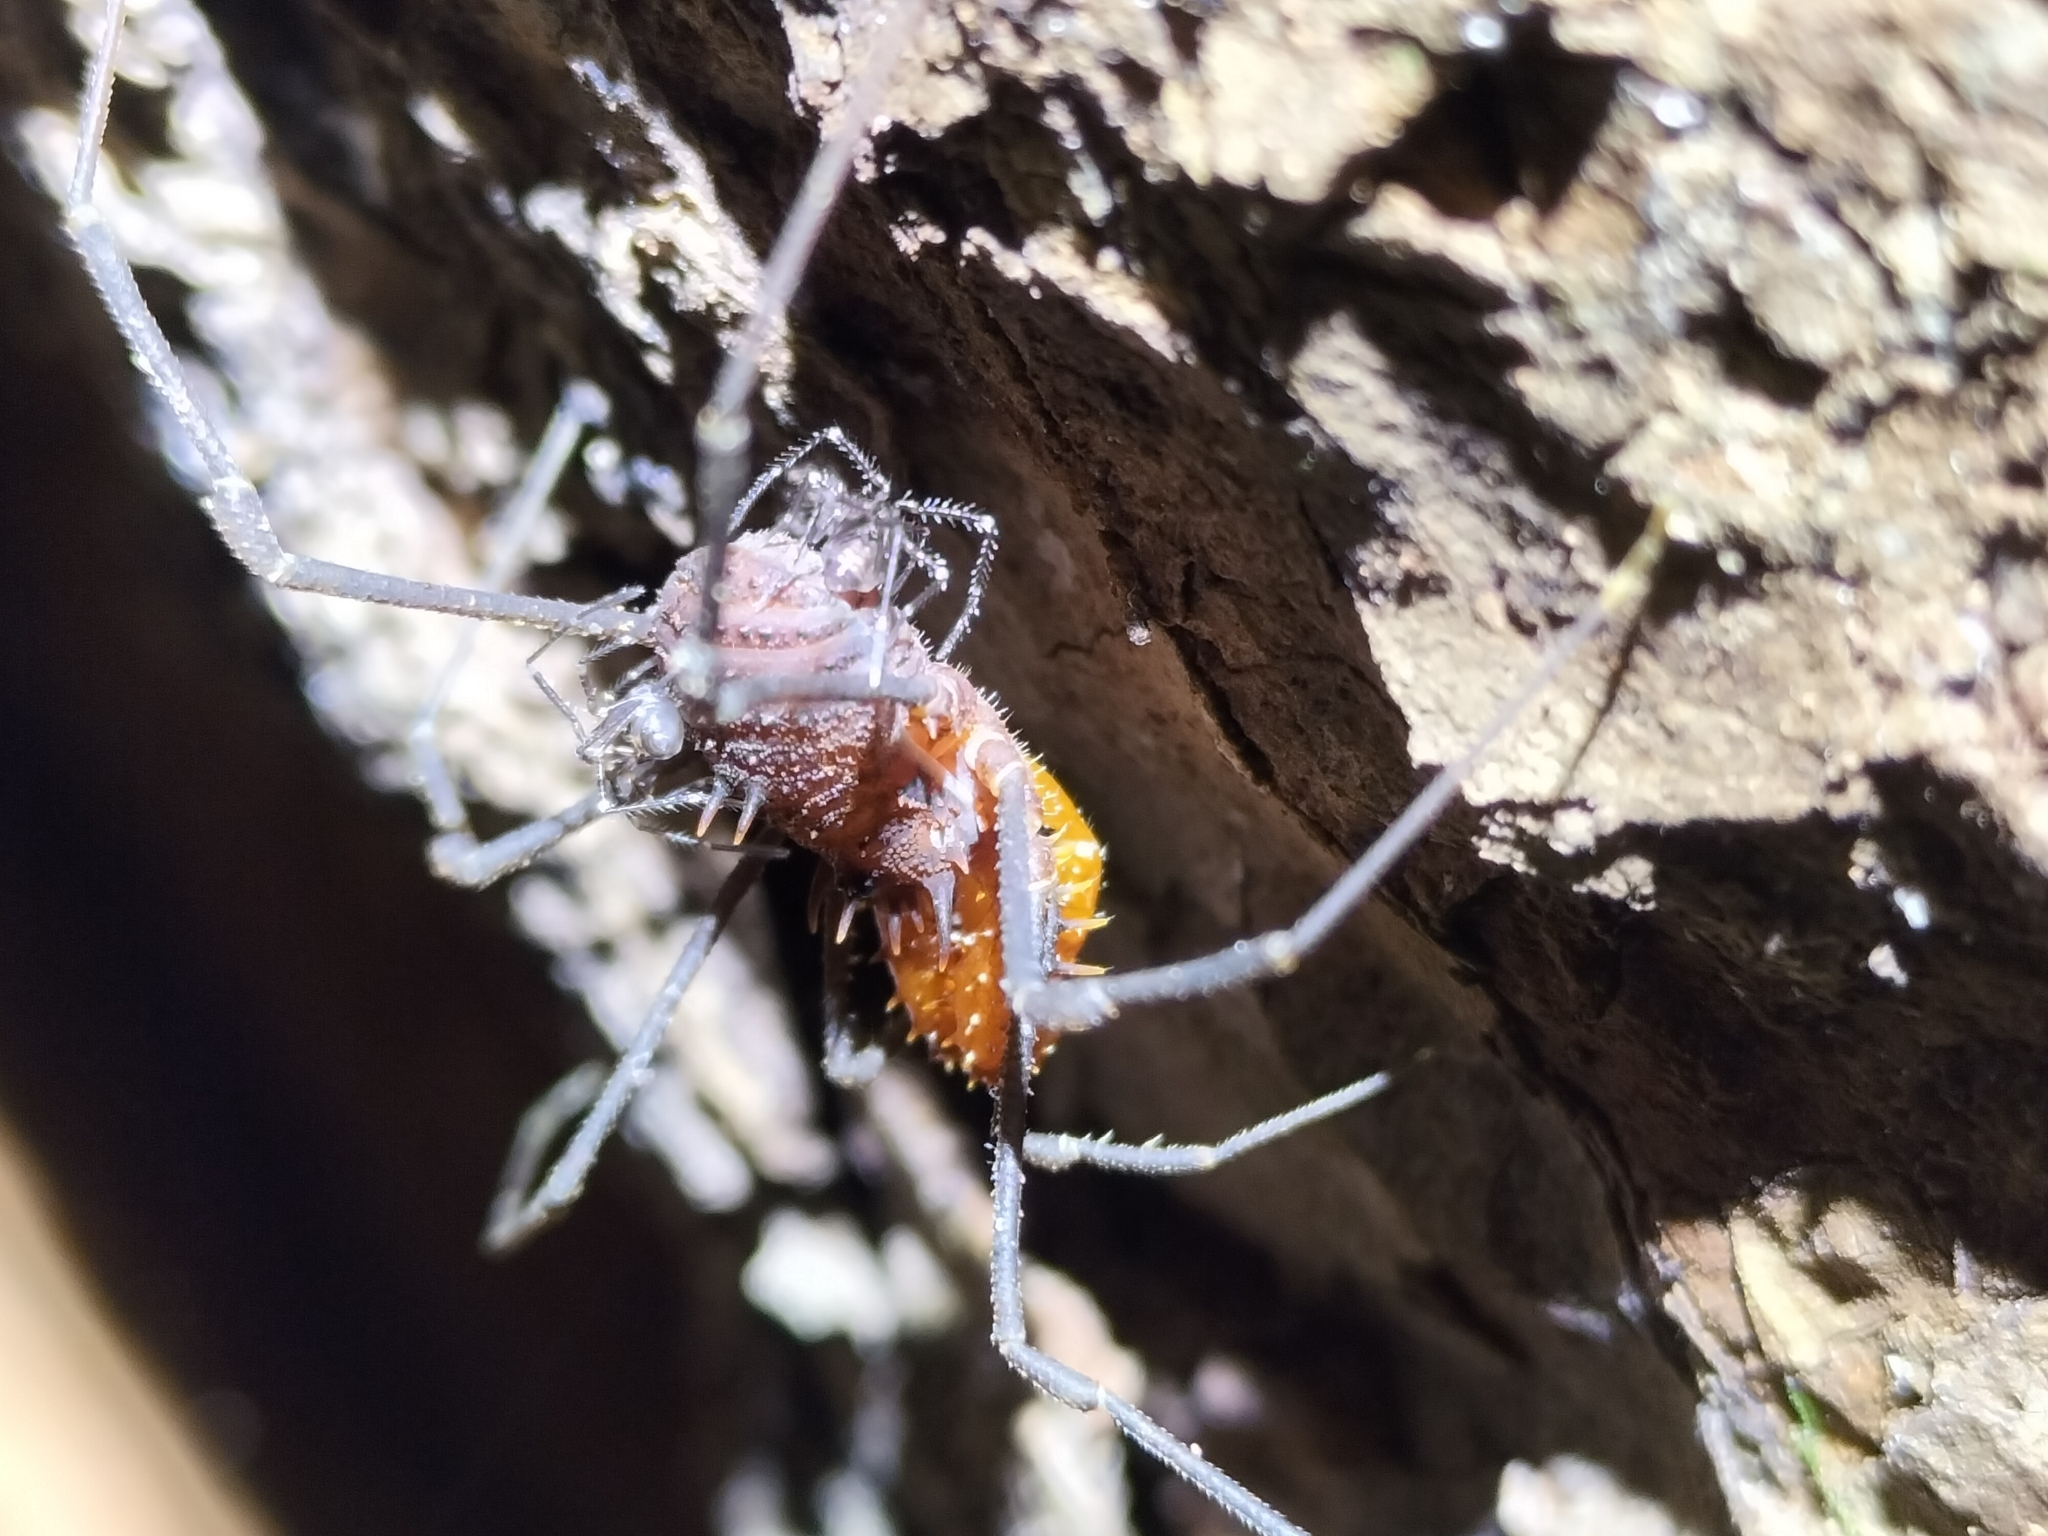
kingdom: Animalia
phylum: Arthropoda
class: Arachnida
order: Opiliones
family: Triaenonychidae
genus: Heteronuncia
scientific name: Heteronuncia robusta
